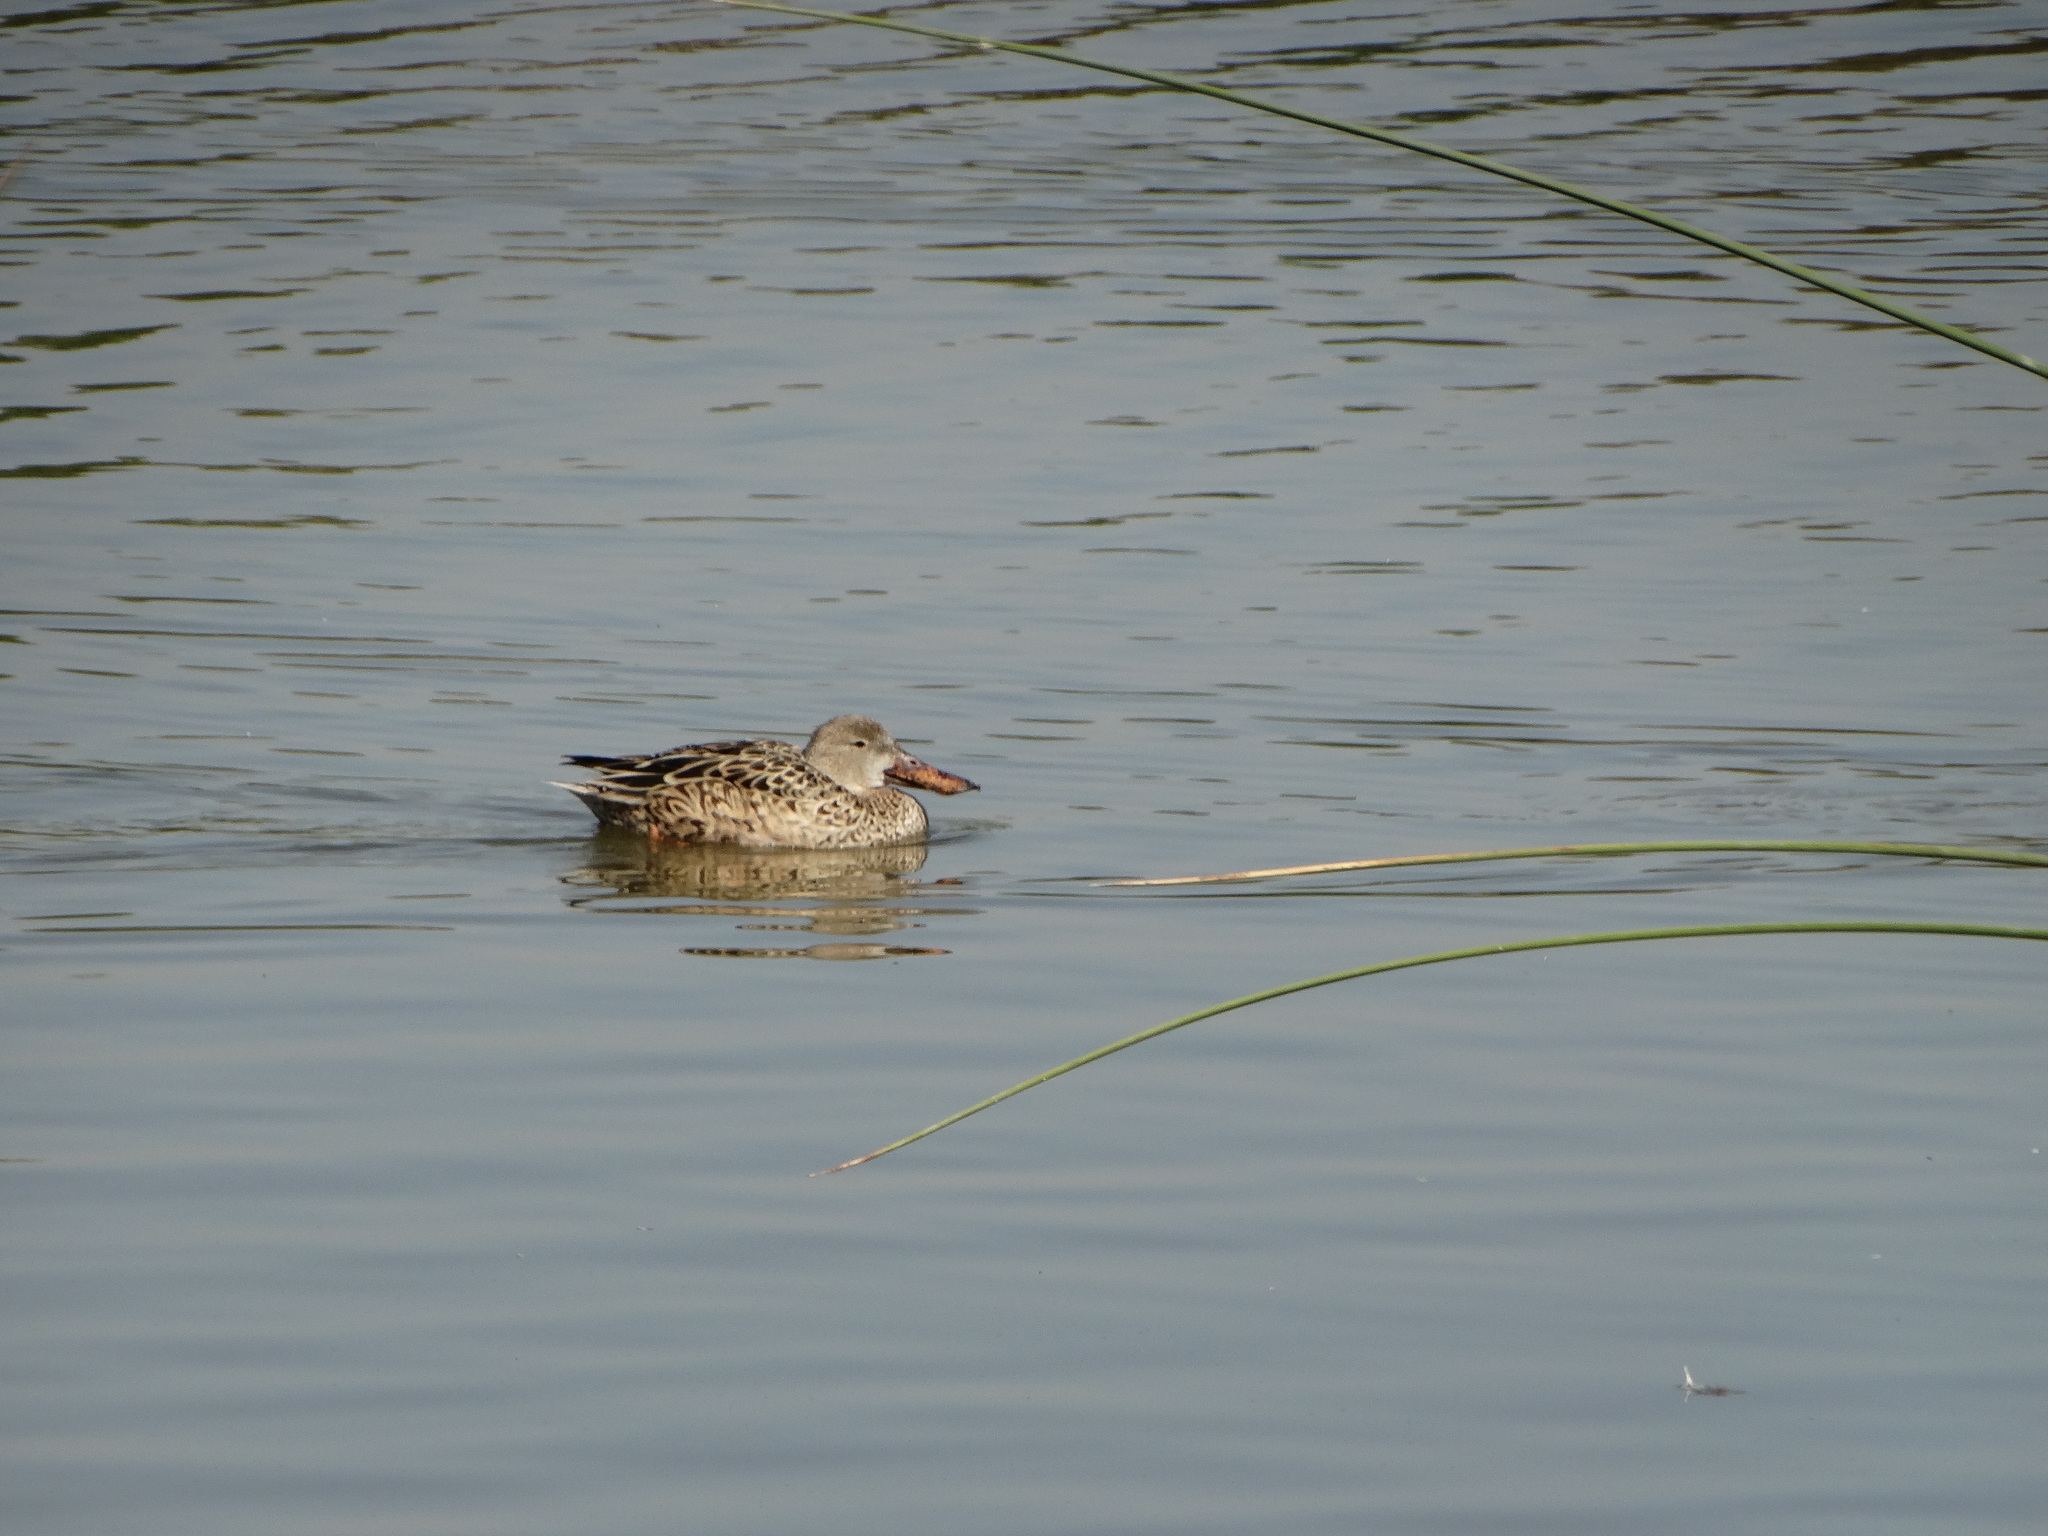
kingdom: Animalia
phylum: Chordata
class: Aves
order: Anseriformes
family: Anatidae
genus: Spatula
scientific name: Spatula clypeata
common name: Northern shoveler
